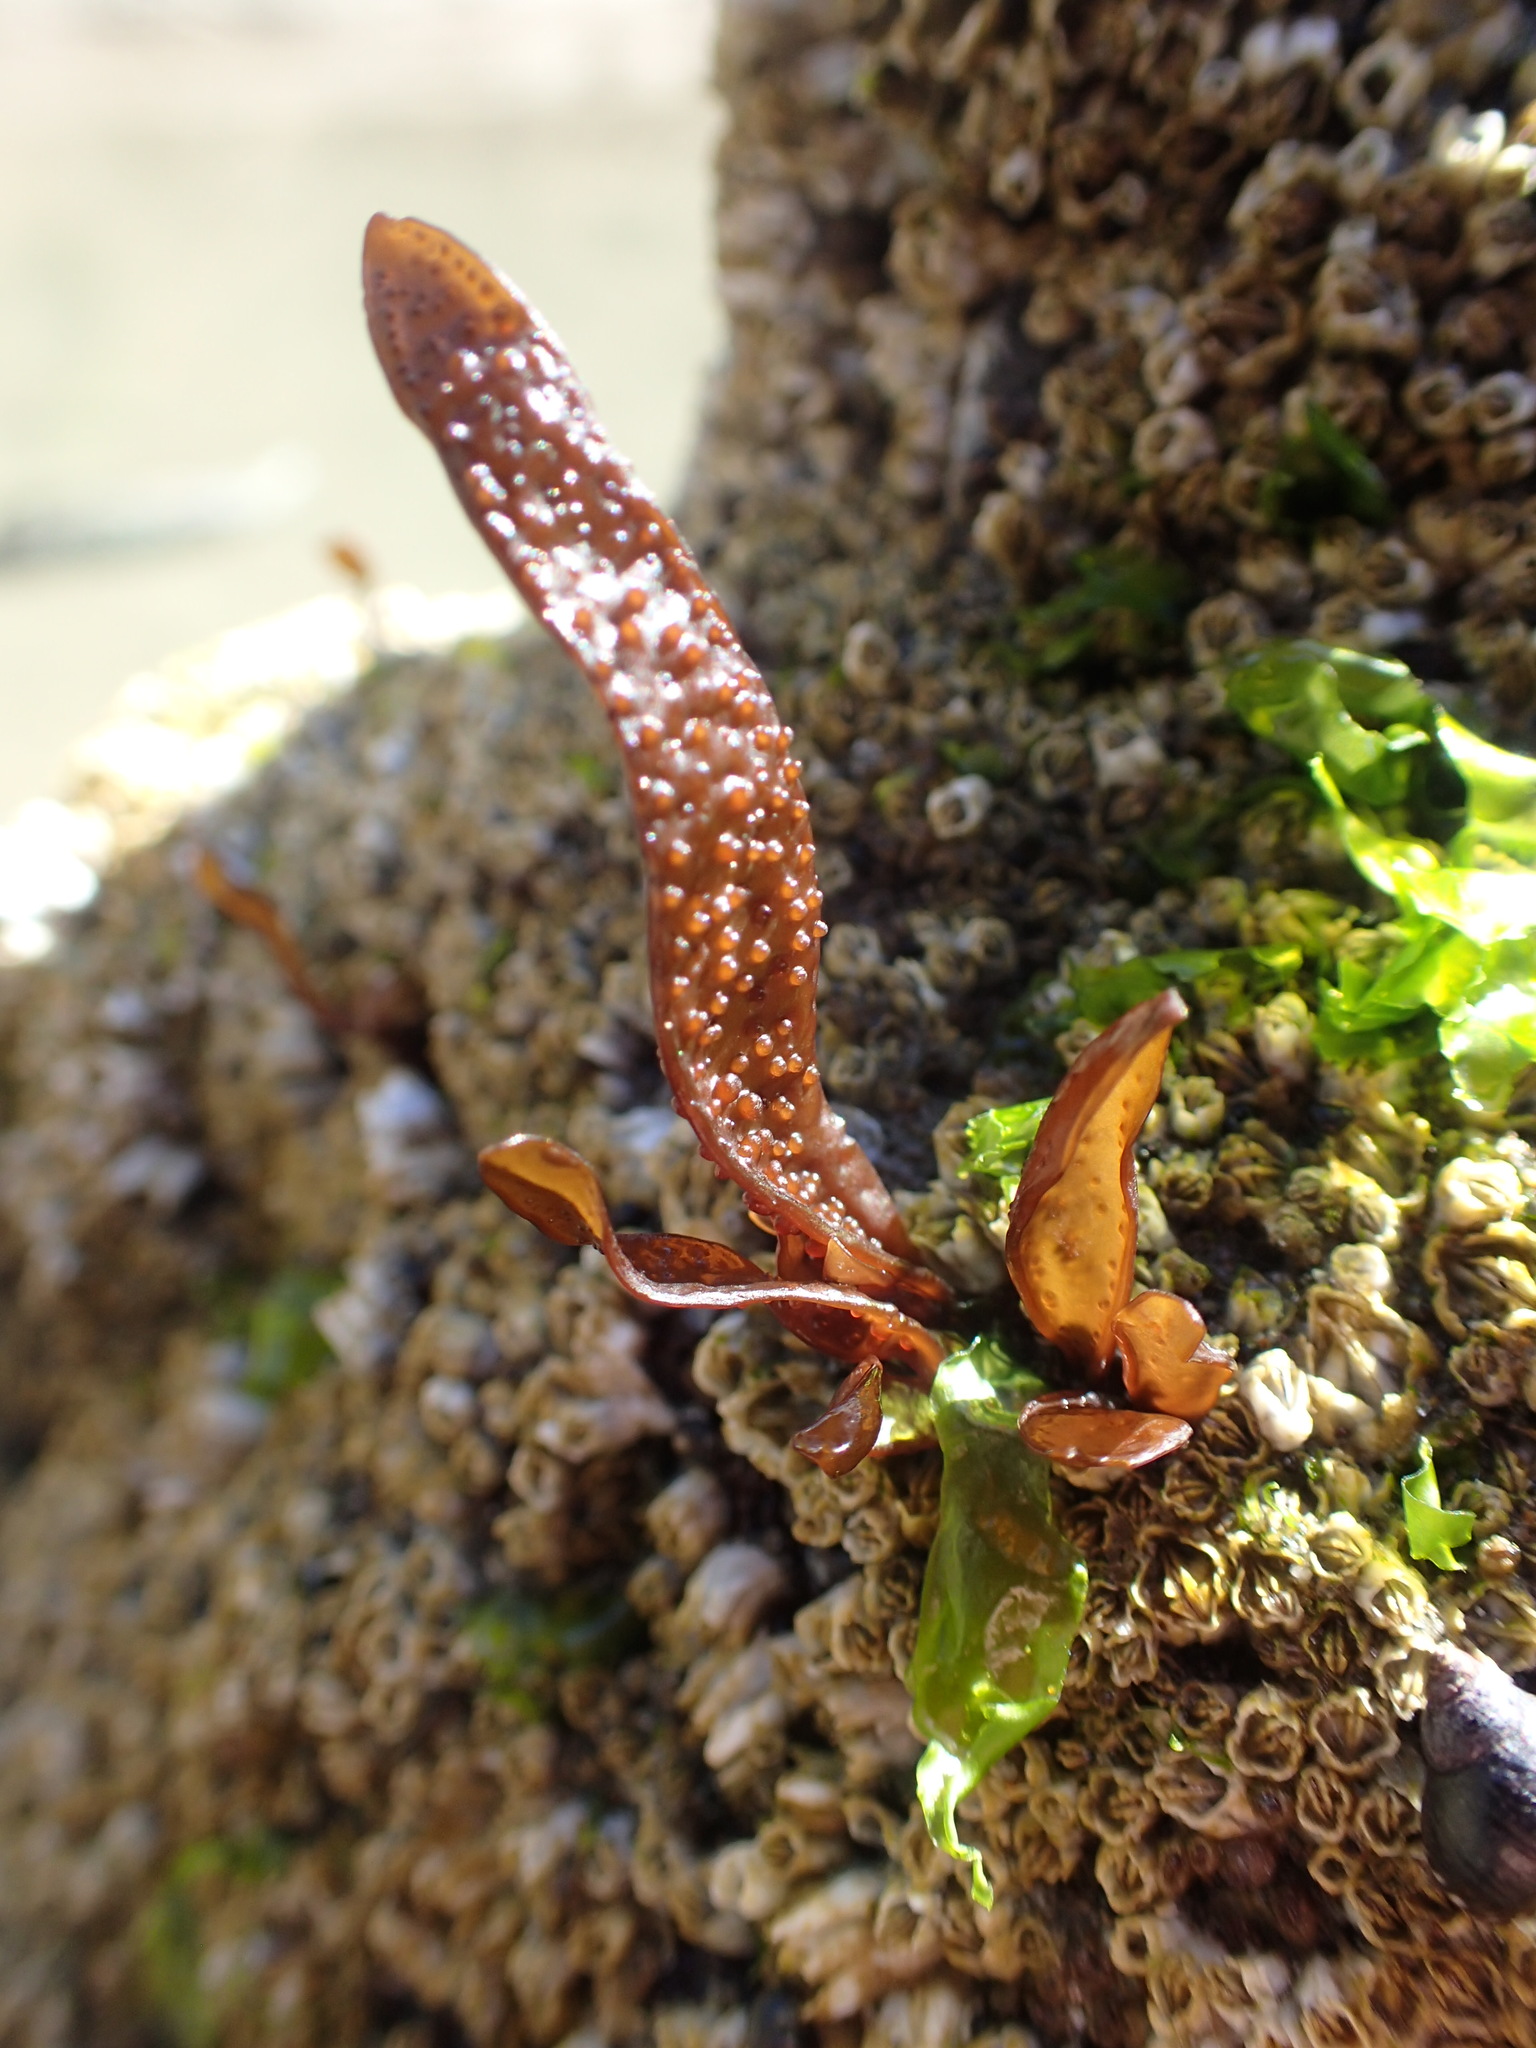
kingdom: Plantae
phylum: Rhodophyta
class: Florideophyceae
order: Gigartinales
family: Phyllophoraceae
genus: Mastocarpus
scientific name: Mastocarpus papillatus
